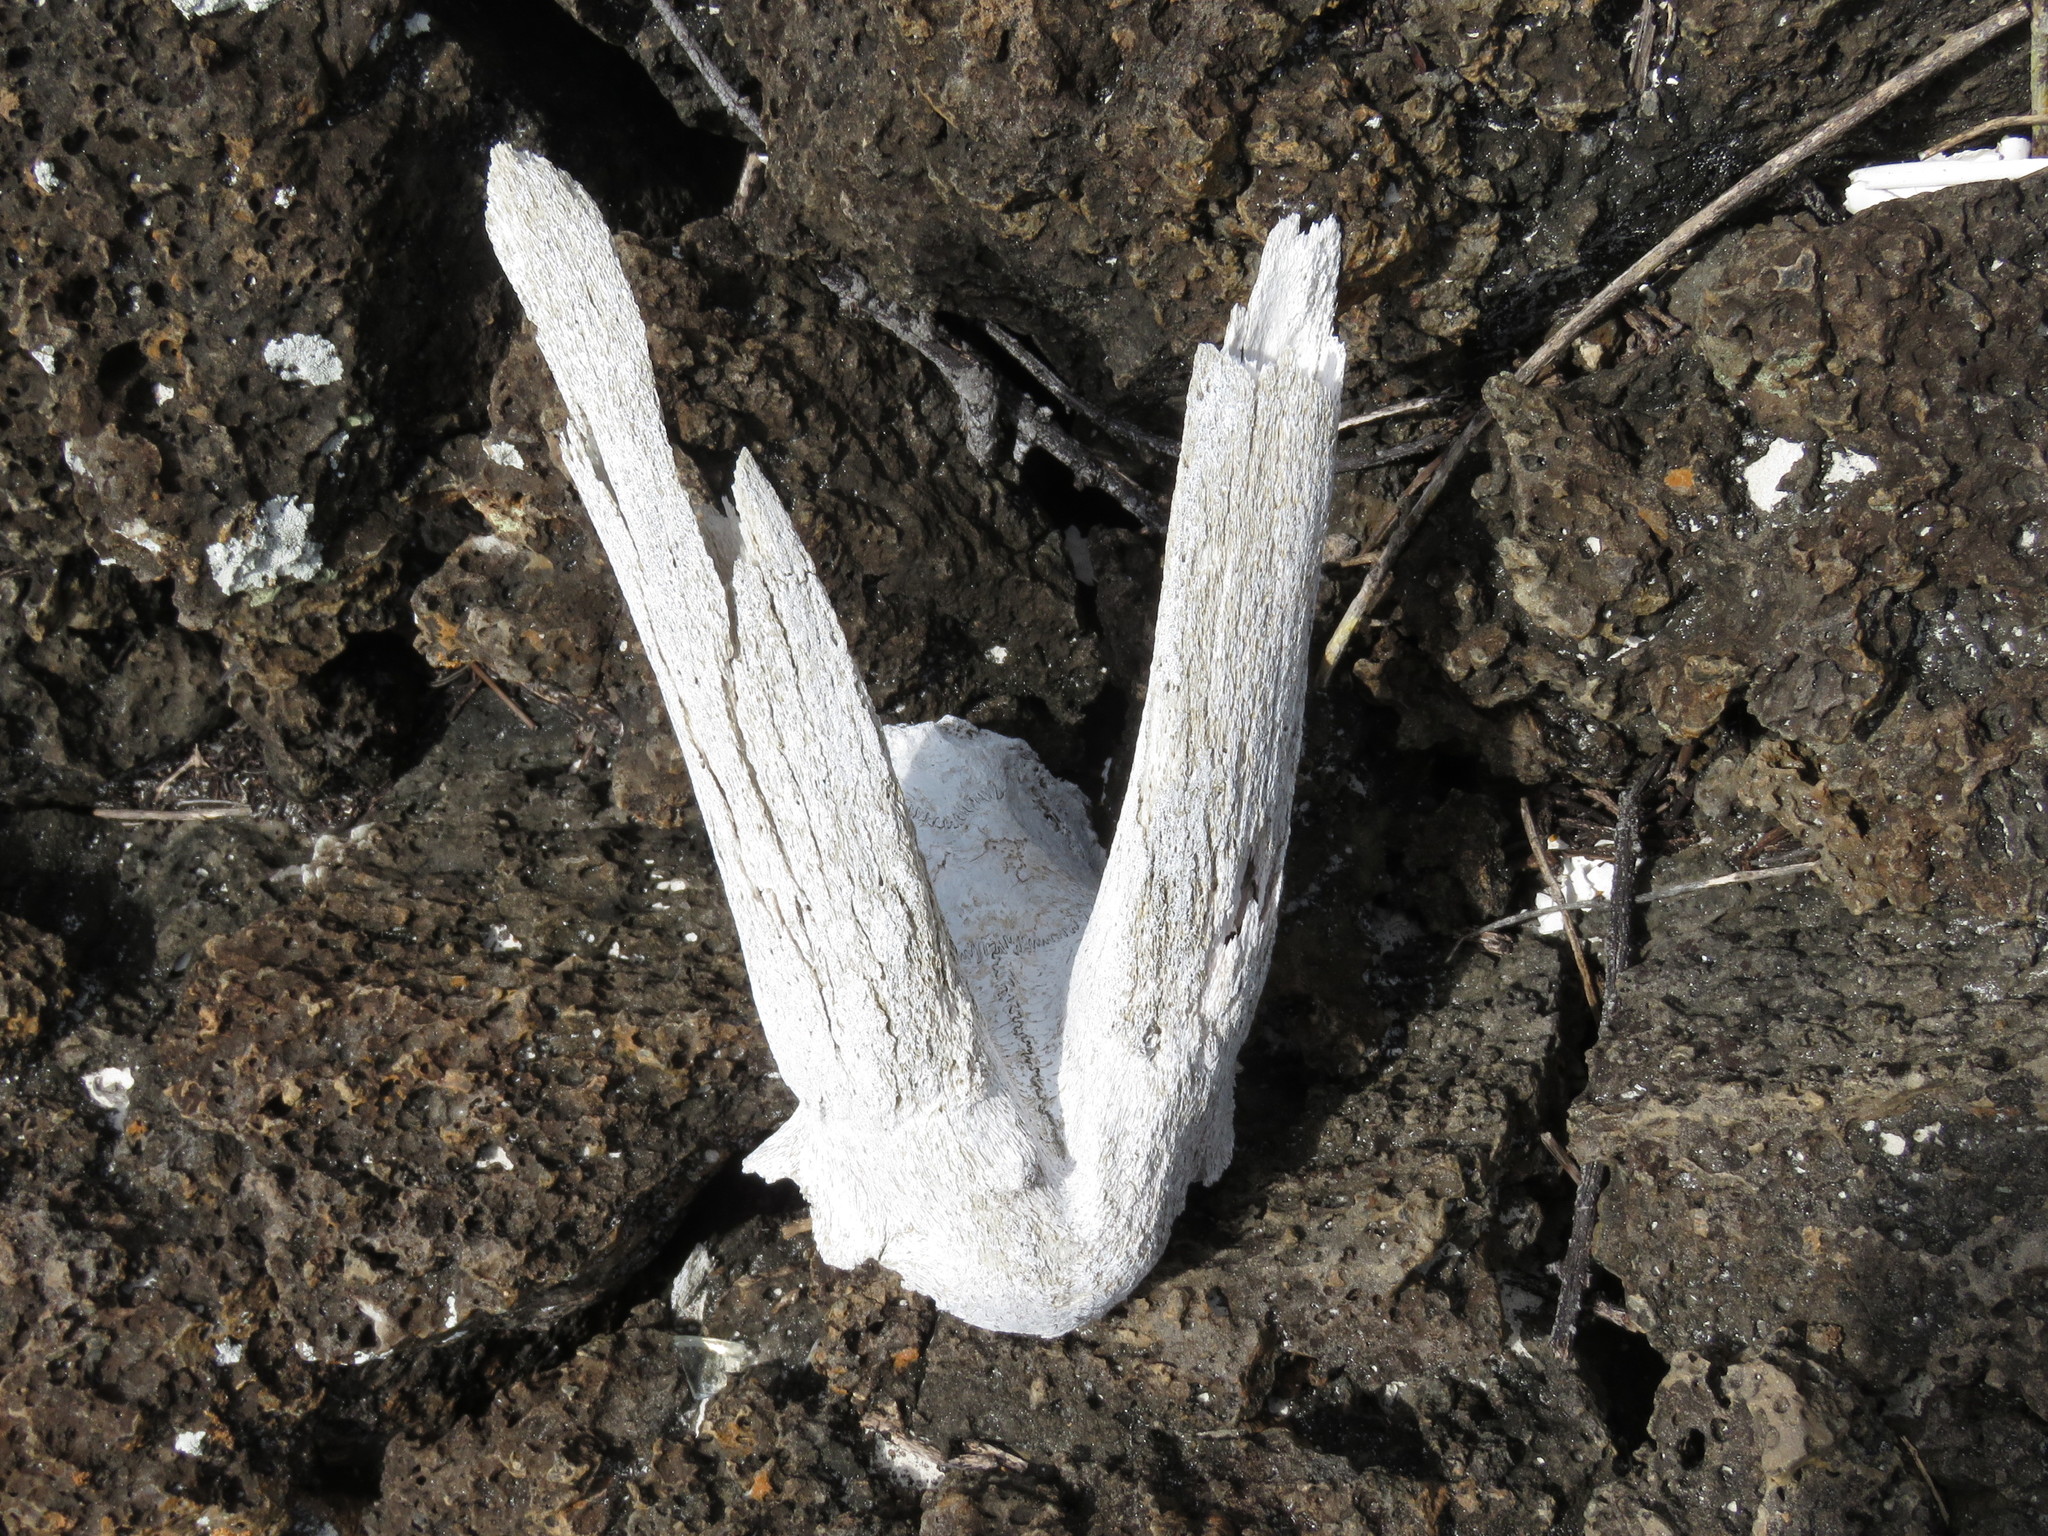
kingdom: Animalia
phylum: Chordata
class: Mammalia
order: Artiodactyla
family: Bovidae
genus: Capra
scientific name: Capra hircus
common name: Domestic goat
